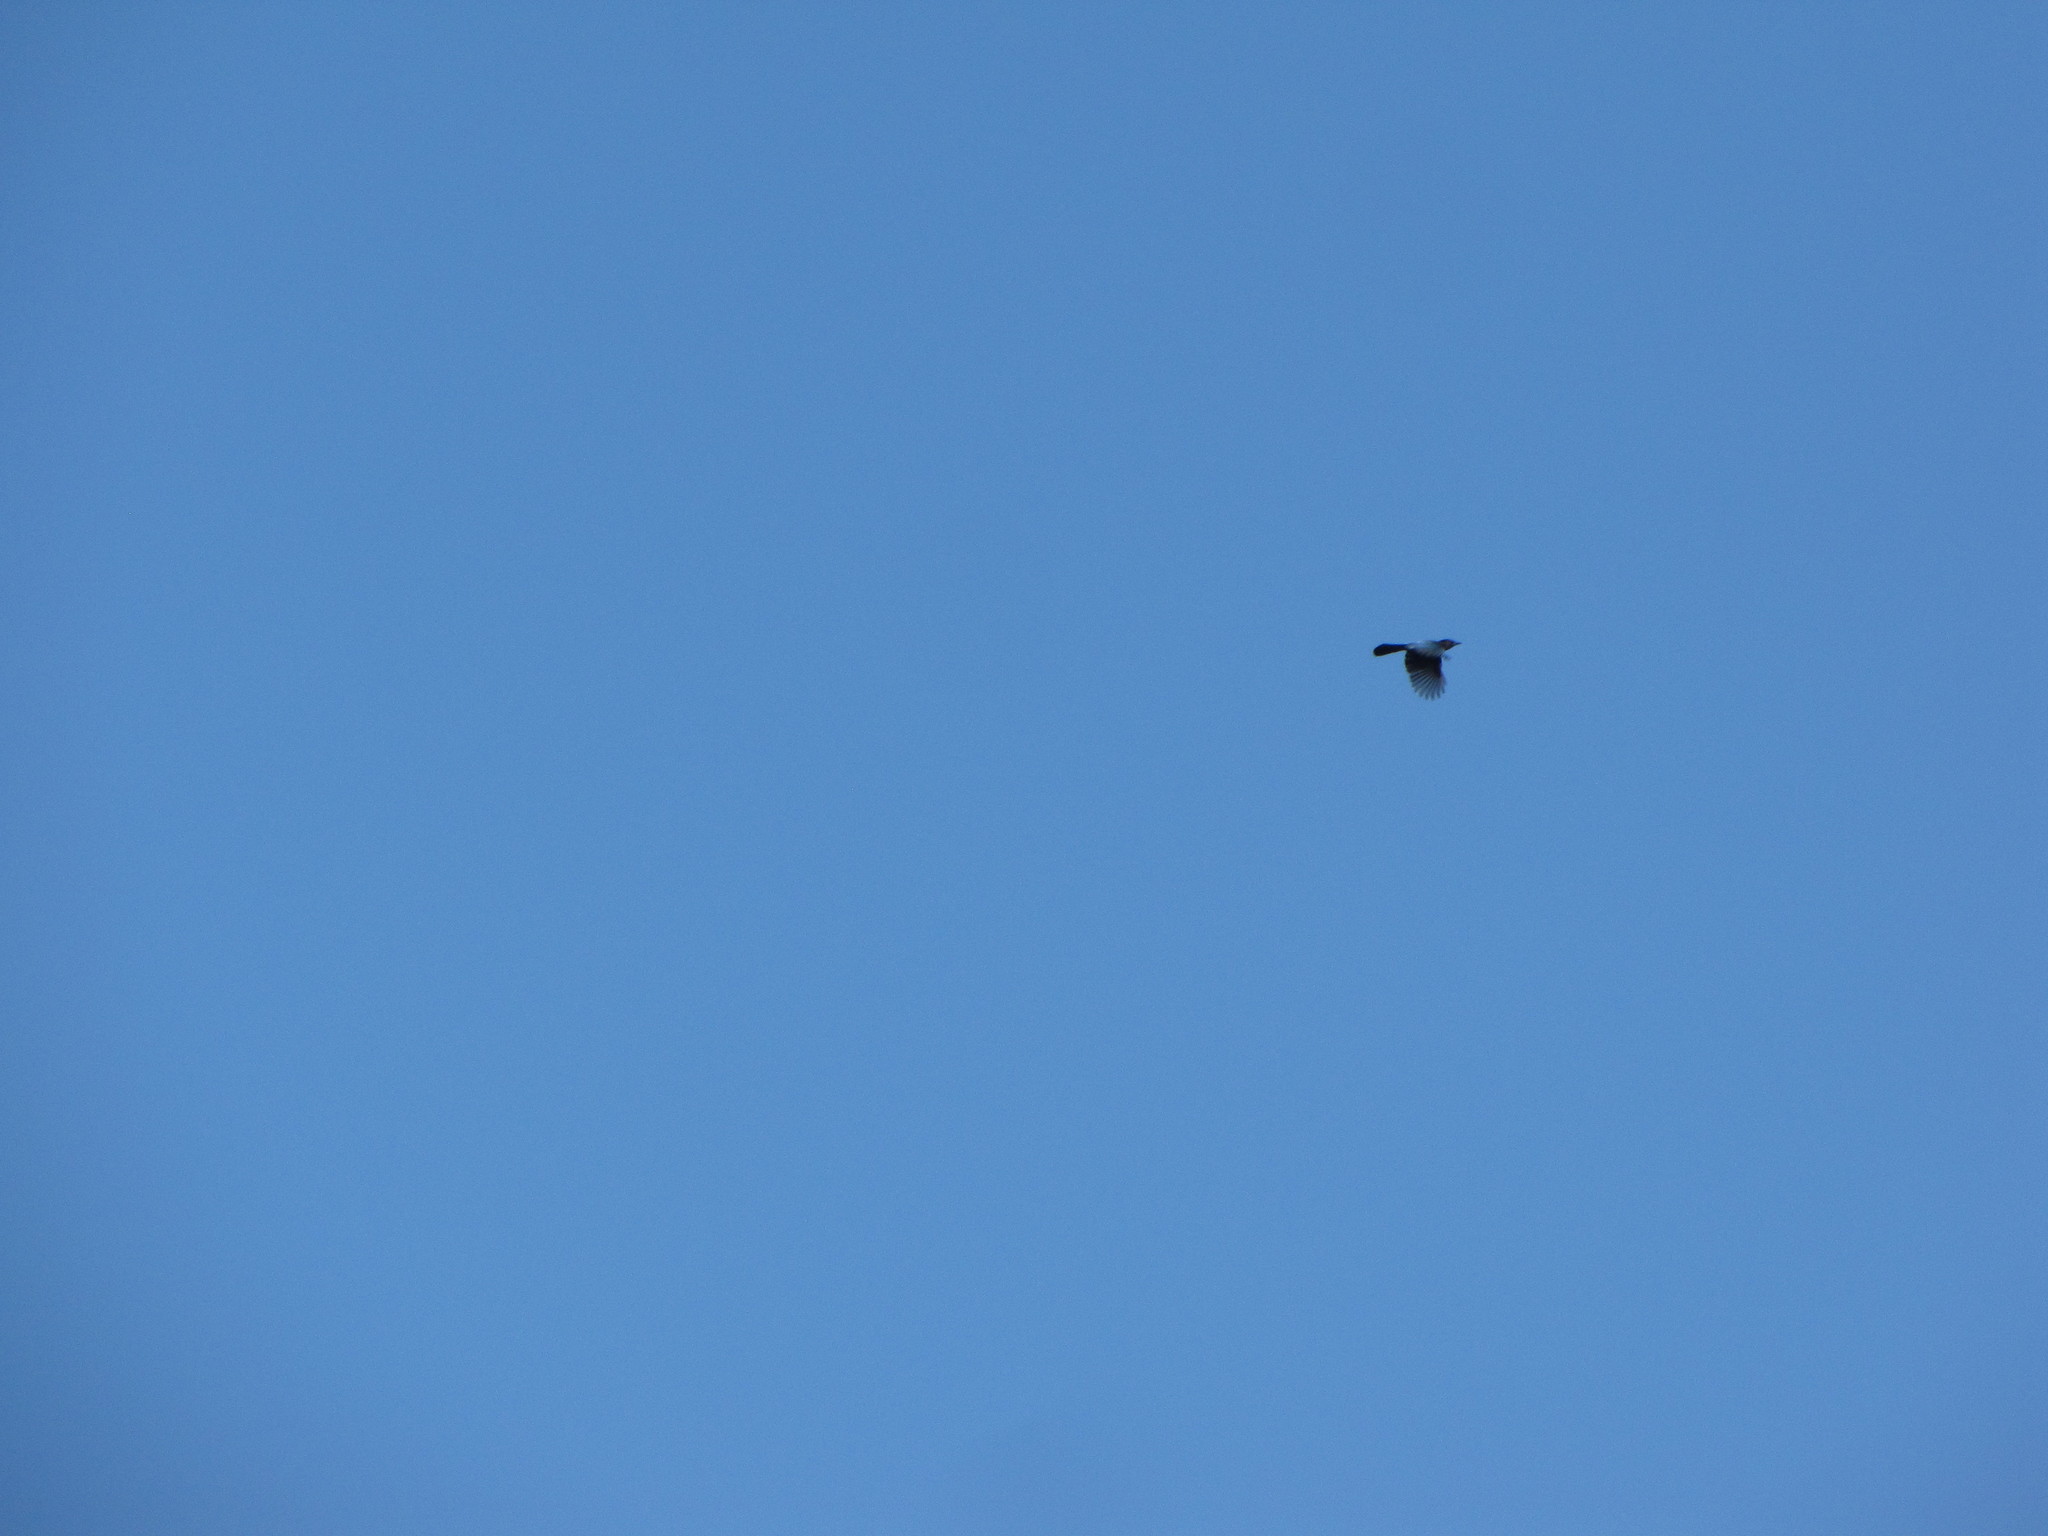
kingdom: Animalia
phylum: Chordata
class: Aves
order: Passeriformes
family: Corvidae
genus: Cyanocitta
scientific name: Cyanocitta stelleri
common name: Steller's jay
